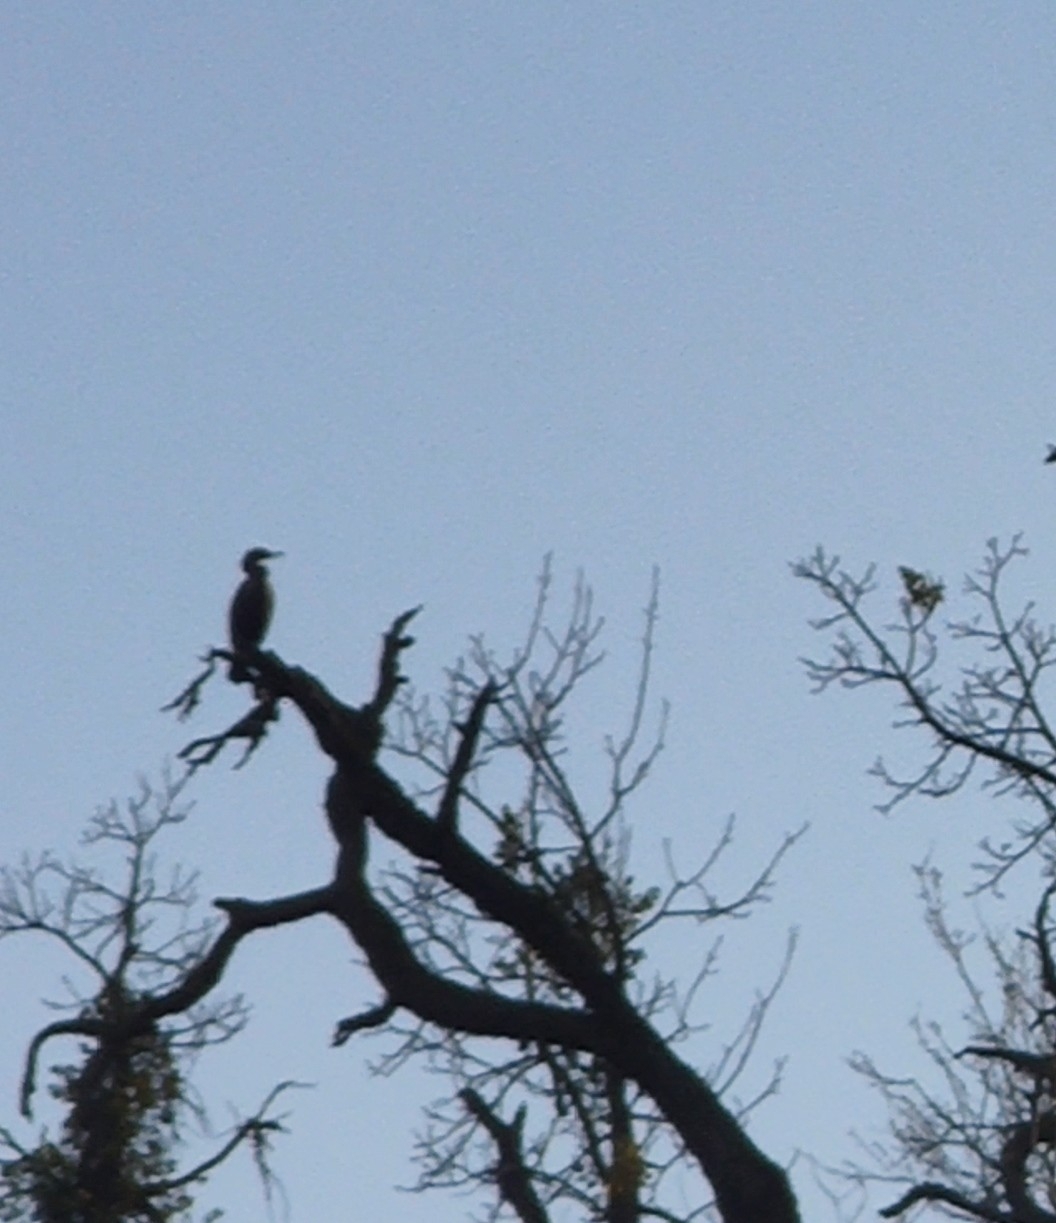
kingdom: Animalia
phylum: Chordata
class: Aves
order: Suliformes
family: Phalacrocoracidae
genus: Phalacrocorax
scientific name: Phalacrocorax auritus
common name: Double-crested cormorant
